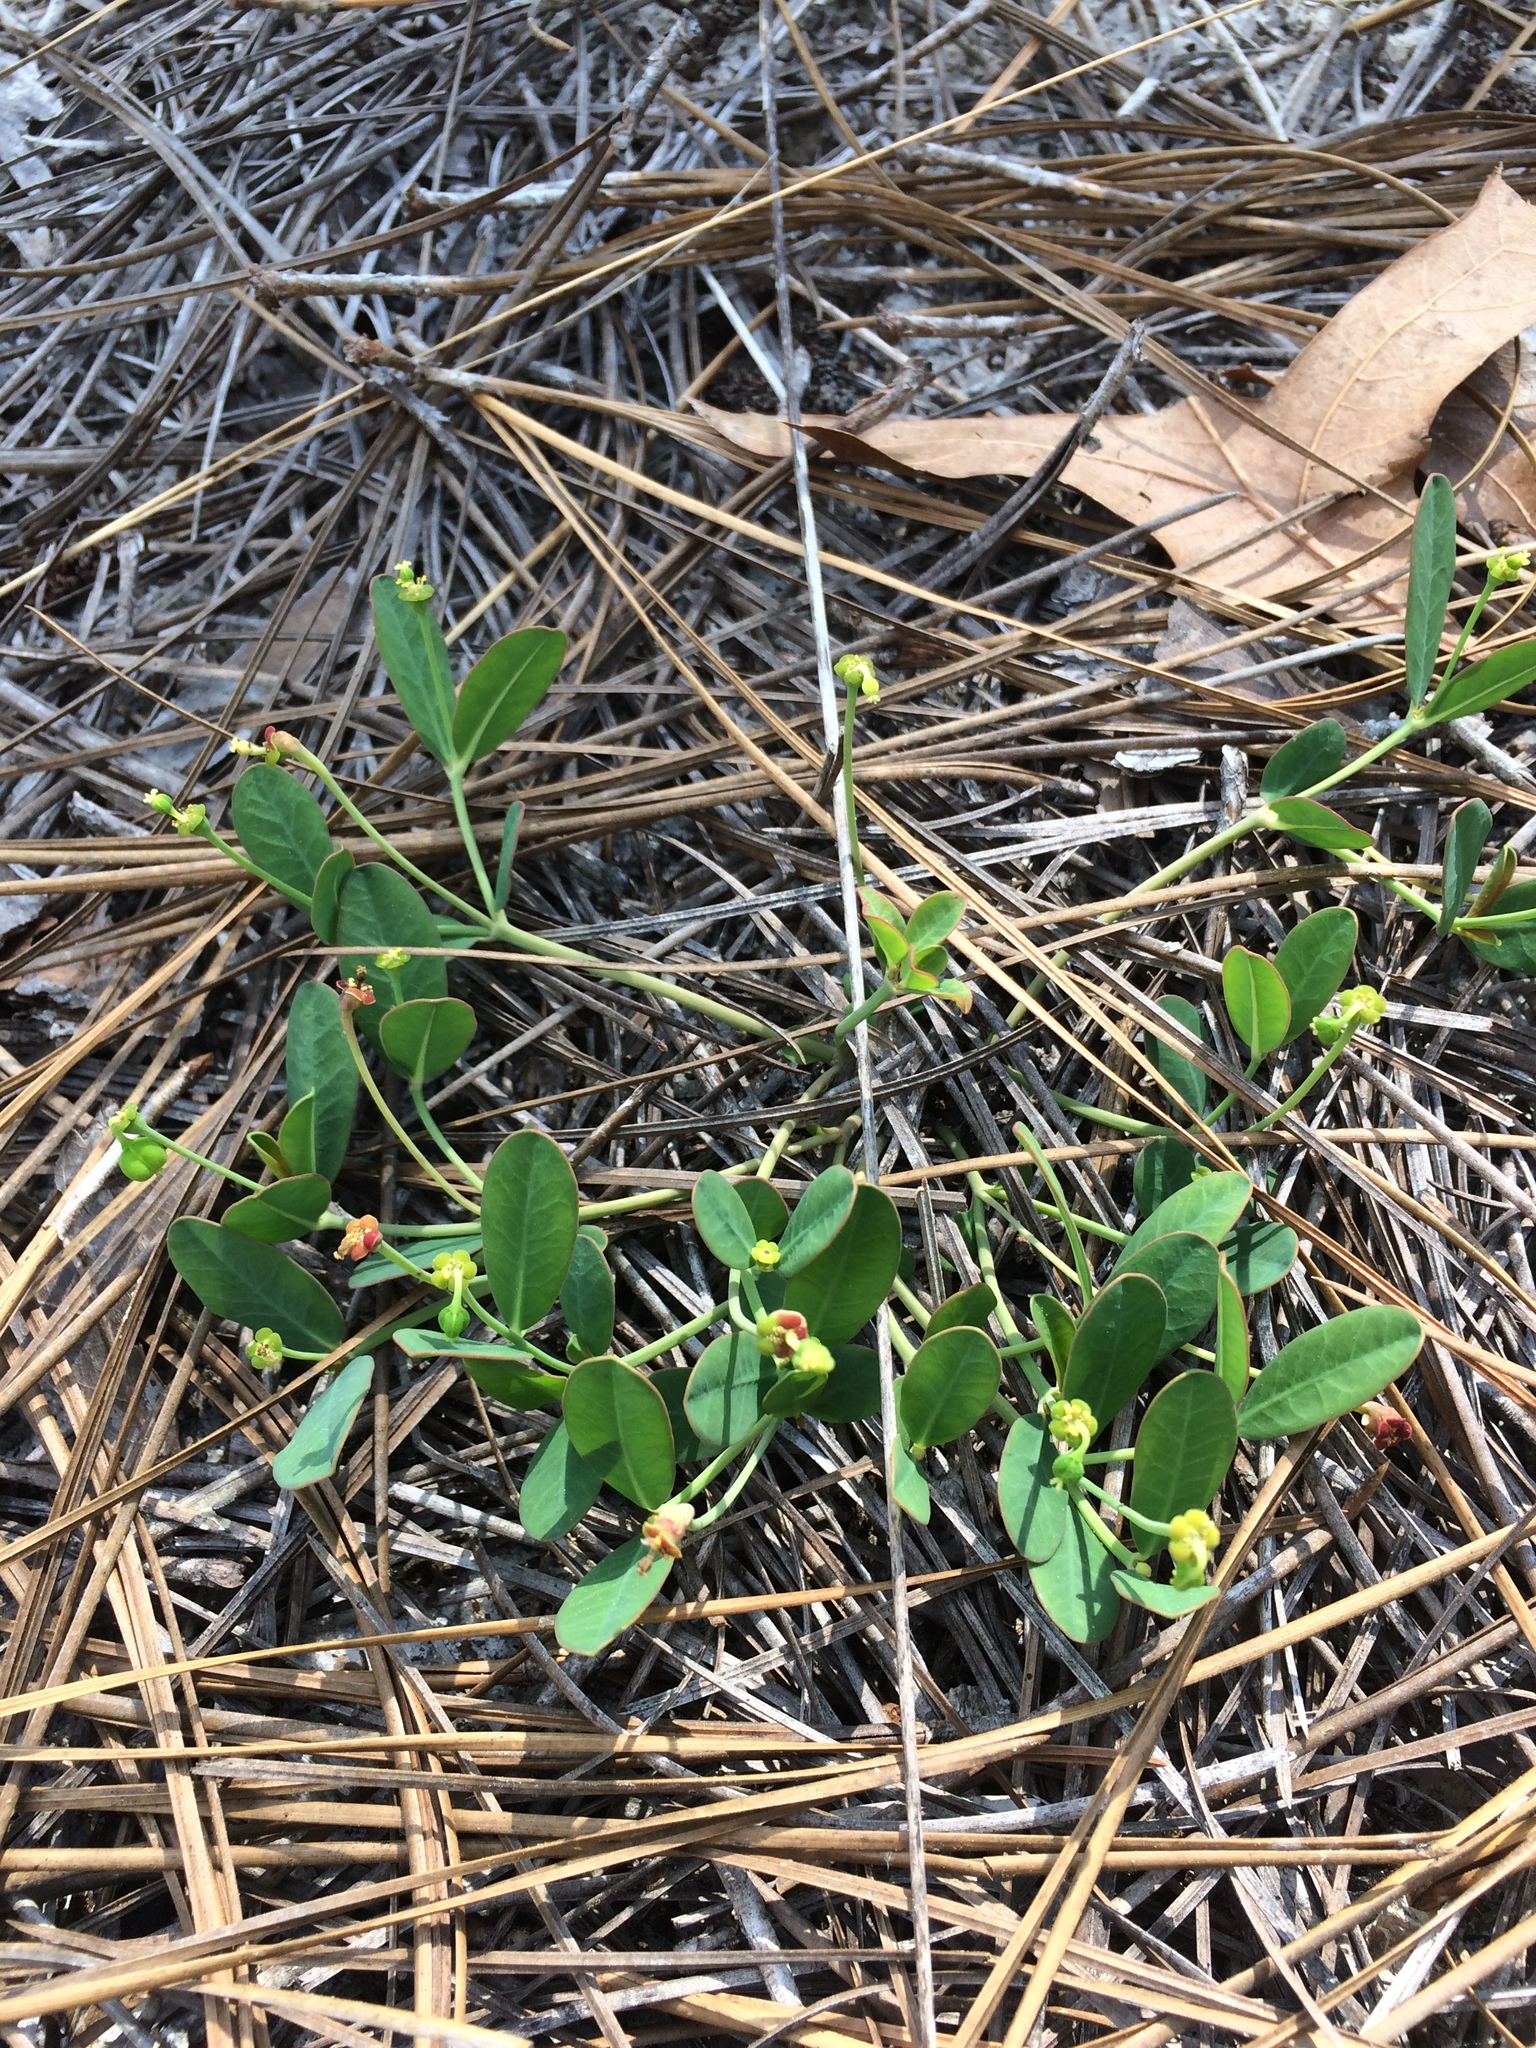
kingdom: Plantae
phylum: Tracheophyta
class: Magnoliopsida
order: Malpighiales
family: Euphorbiaceae
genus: Euphorbia
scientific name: Euphorbia ipecacuanhae
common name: Carolina ipecac
